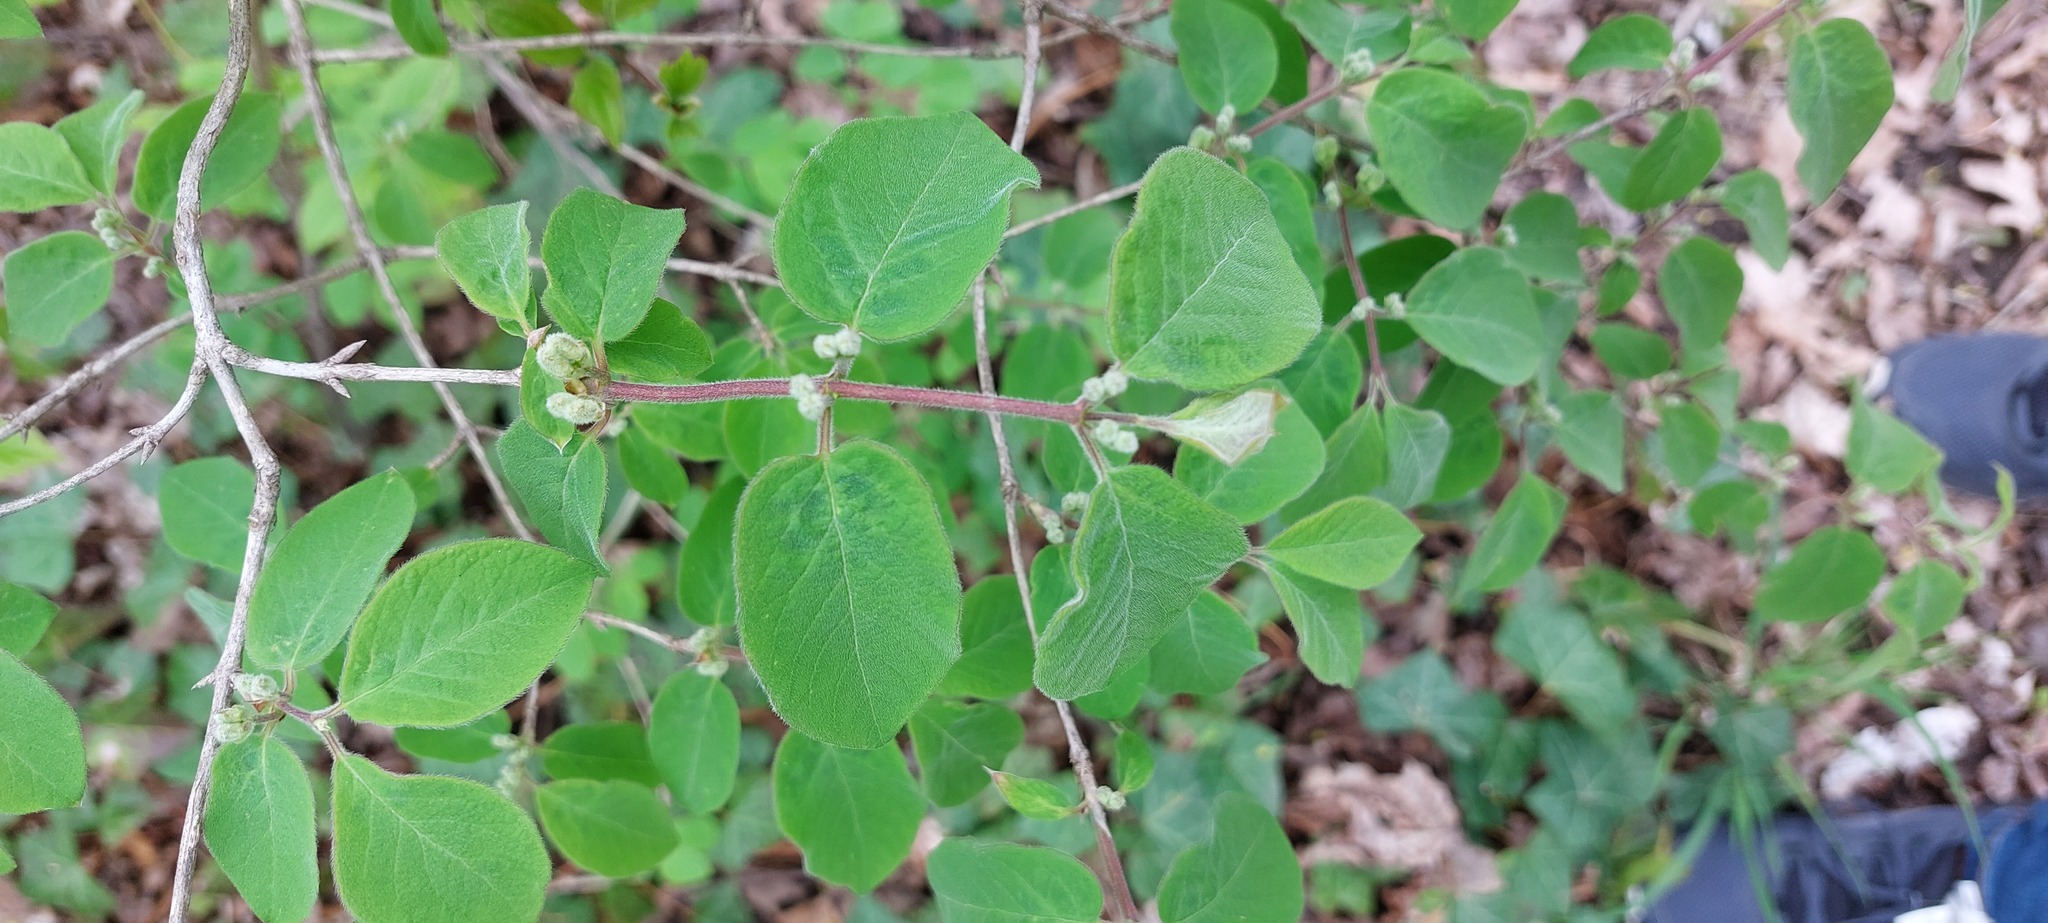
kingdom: Plantae
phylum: Tracheophyta
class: Magnoliopsida
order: Dipsacales
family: Caprifoliaceae
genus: Lonicera
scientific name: Lonicera xylosteum
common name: Fly honeysuckle
